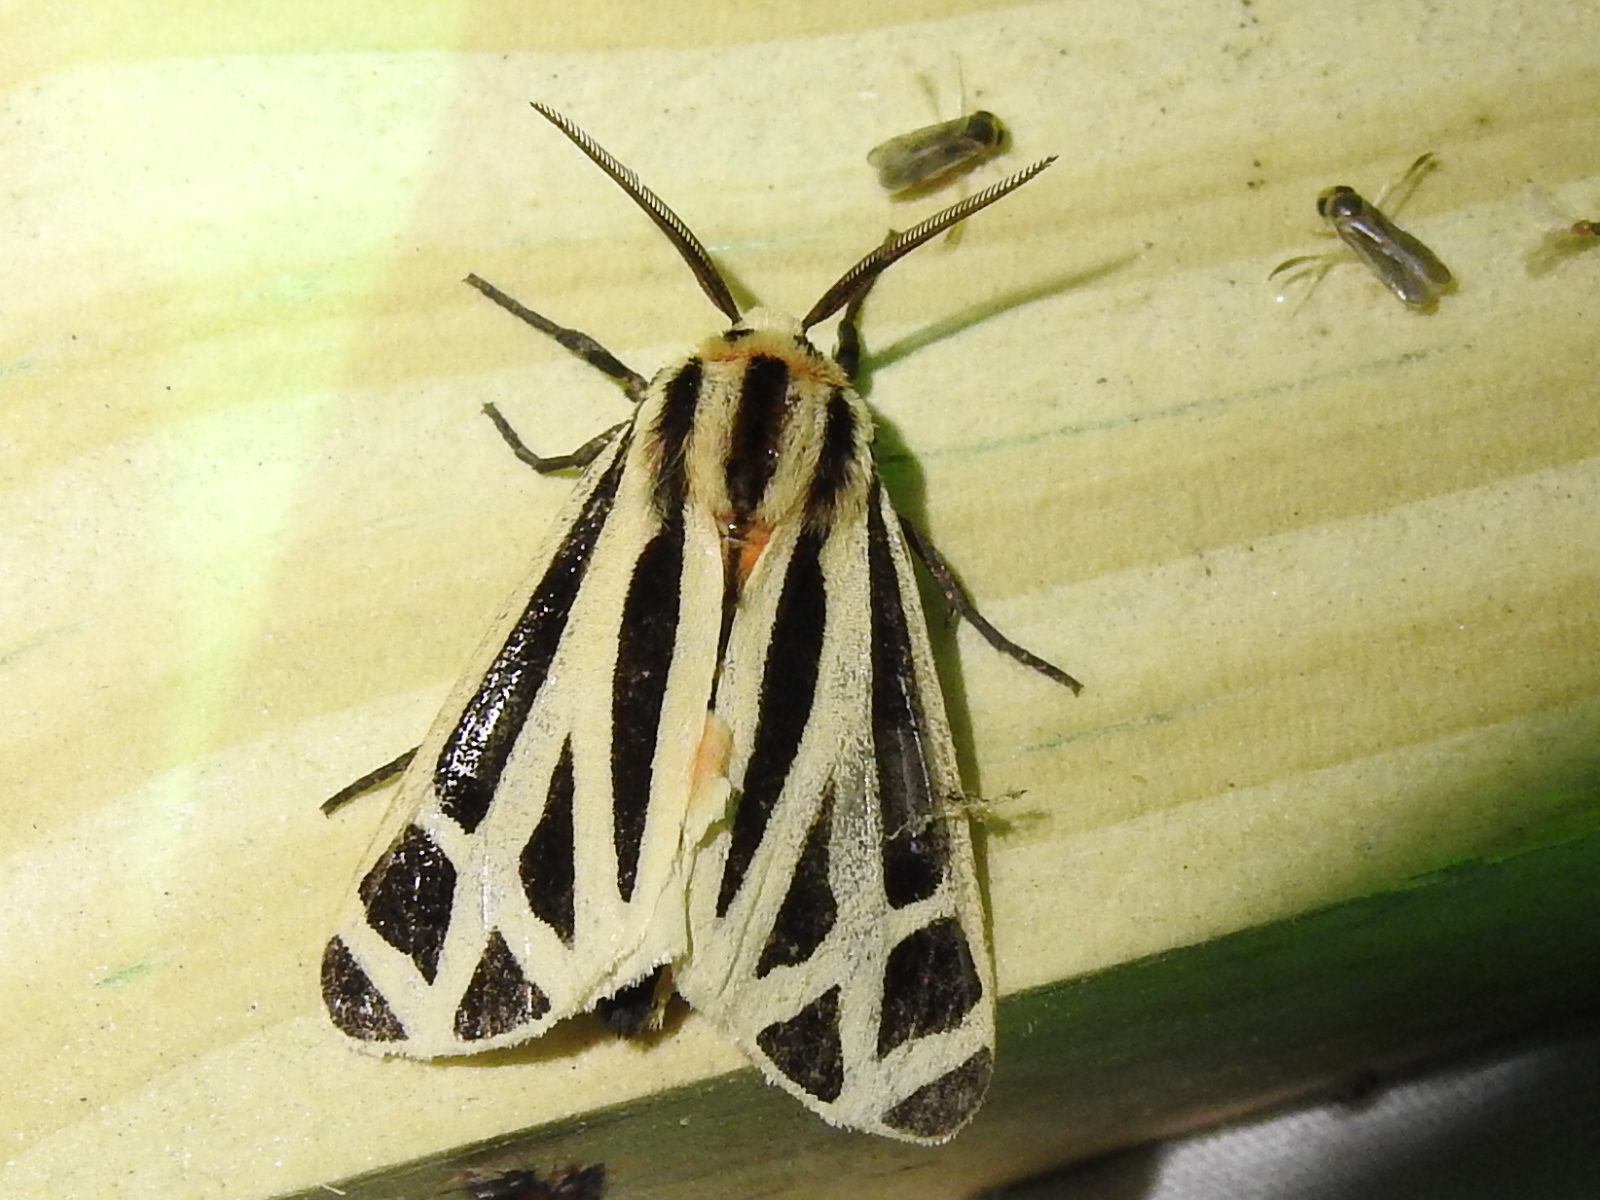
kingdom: Animalia
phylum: Arthropoda
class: Insecta
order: Lepidoptera
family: Erebidae
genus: Apantesis
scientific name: Apantesis phalerata
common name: Harnessed tiger moth
